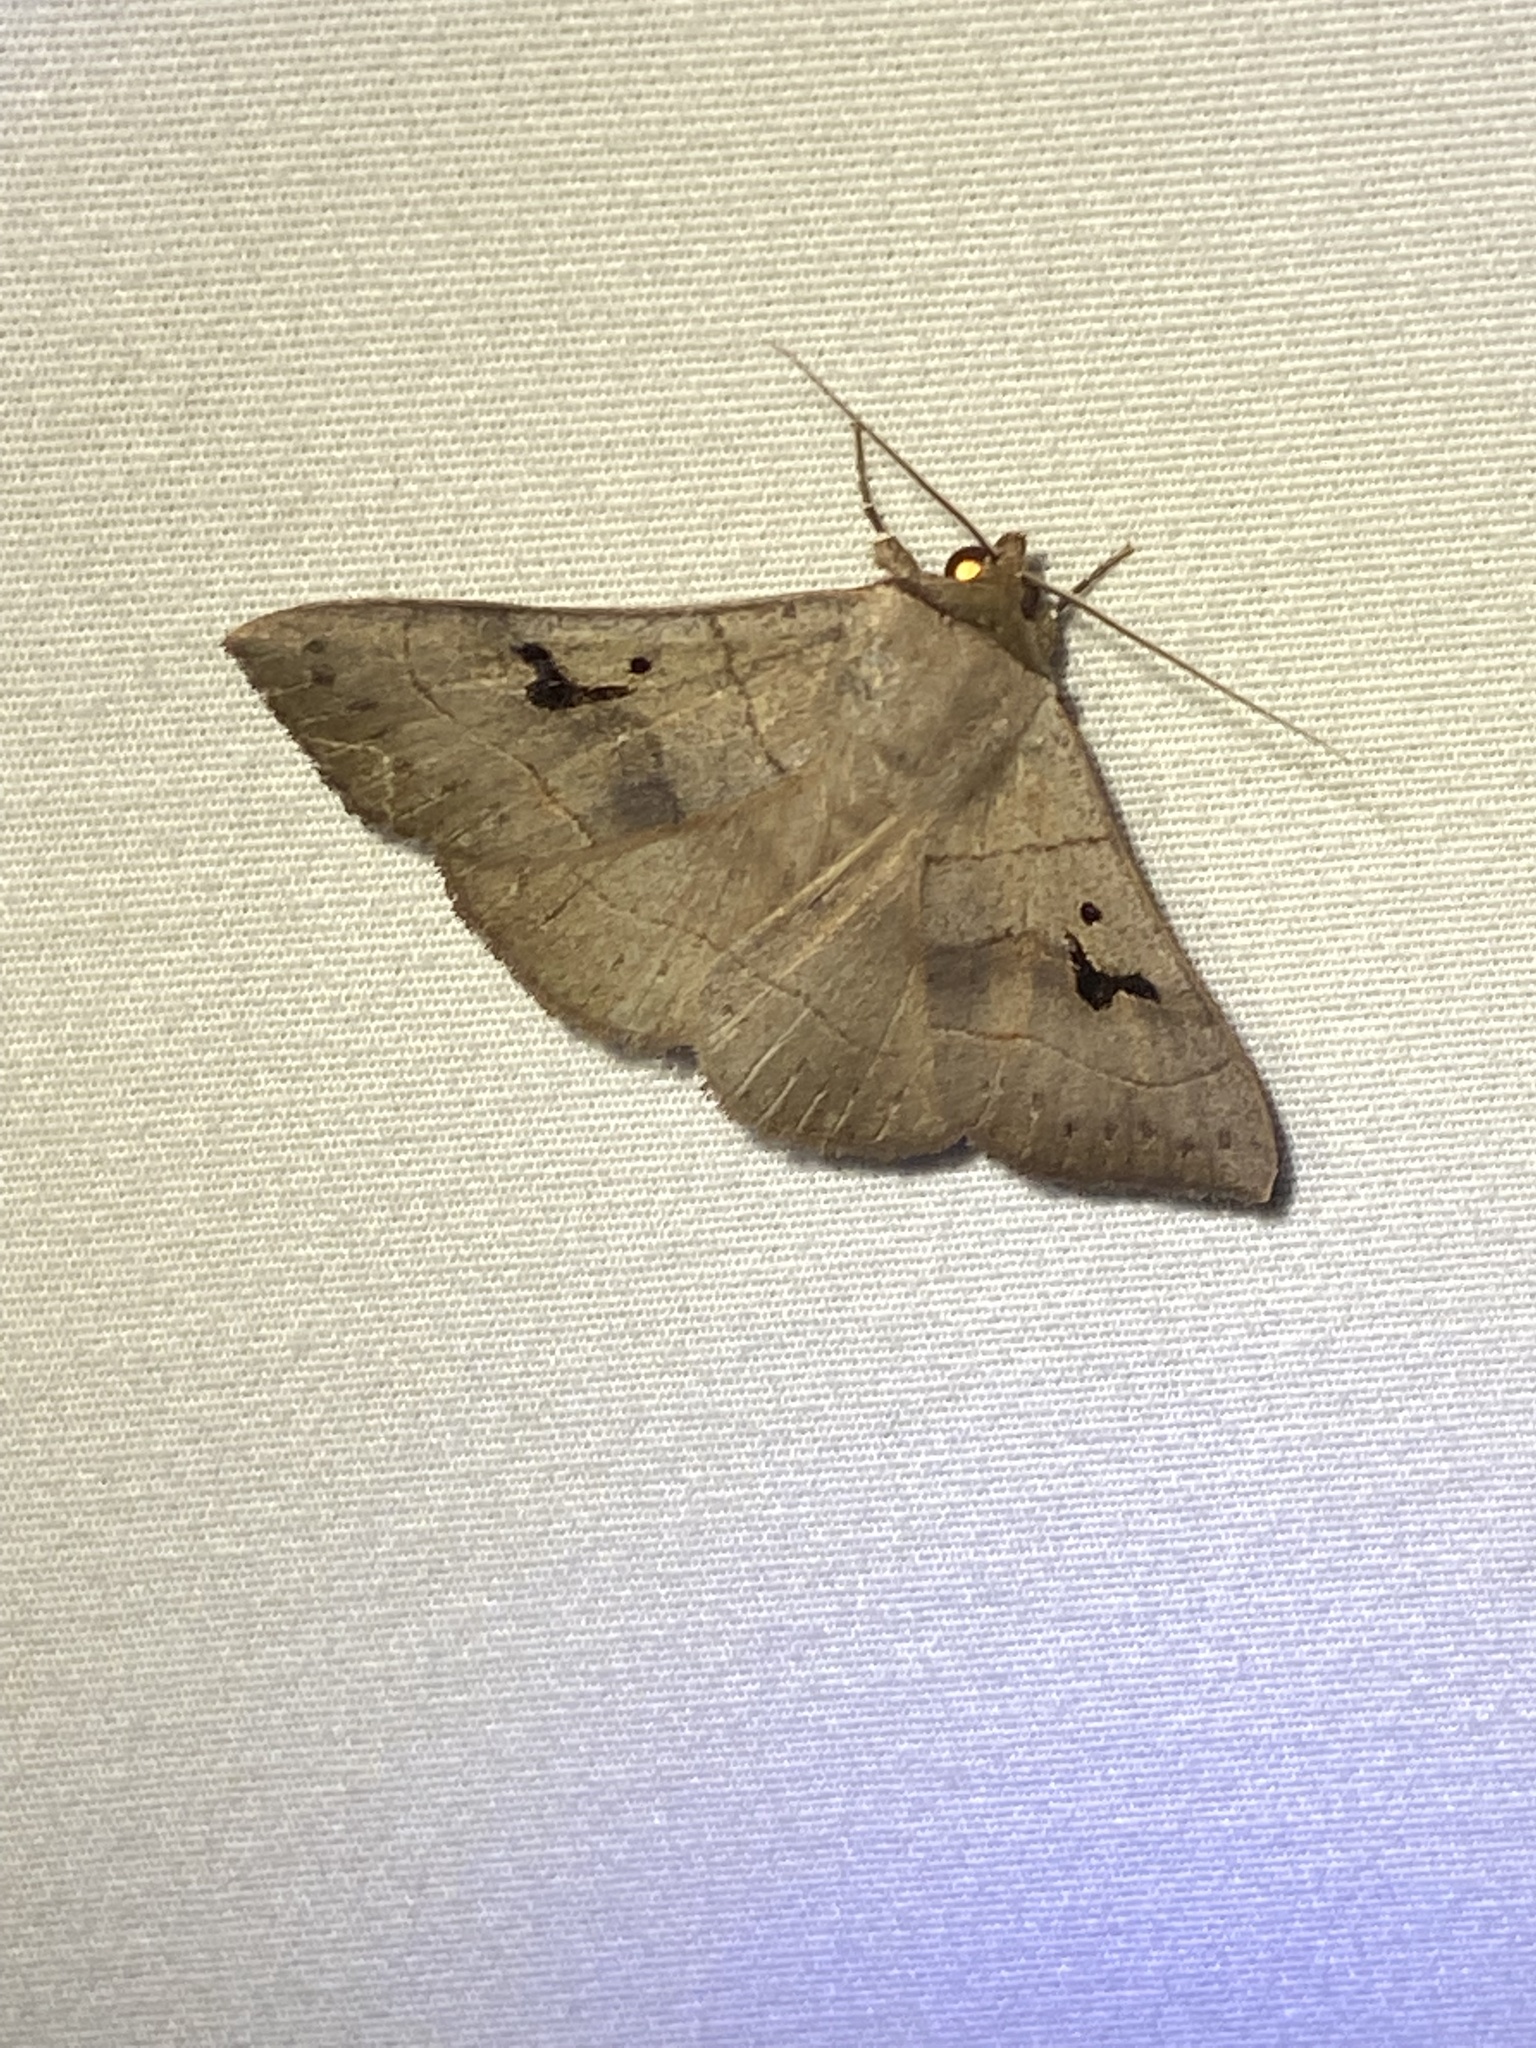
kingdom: Animalia
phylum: Arthropoda
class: Insecta
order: Lepidoptera
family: Erebidae
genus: Panopoda
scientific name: Panopoda carneicosta
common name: Brown panopoda moth
